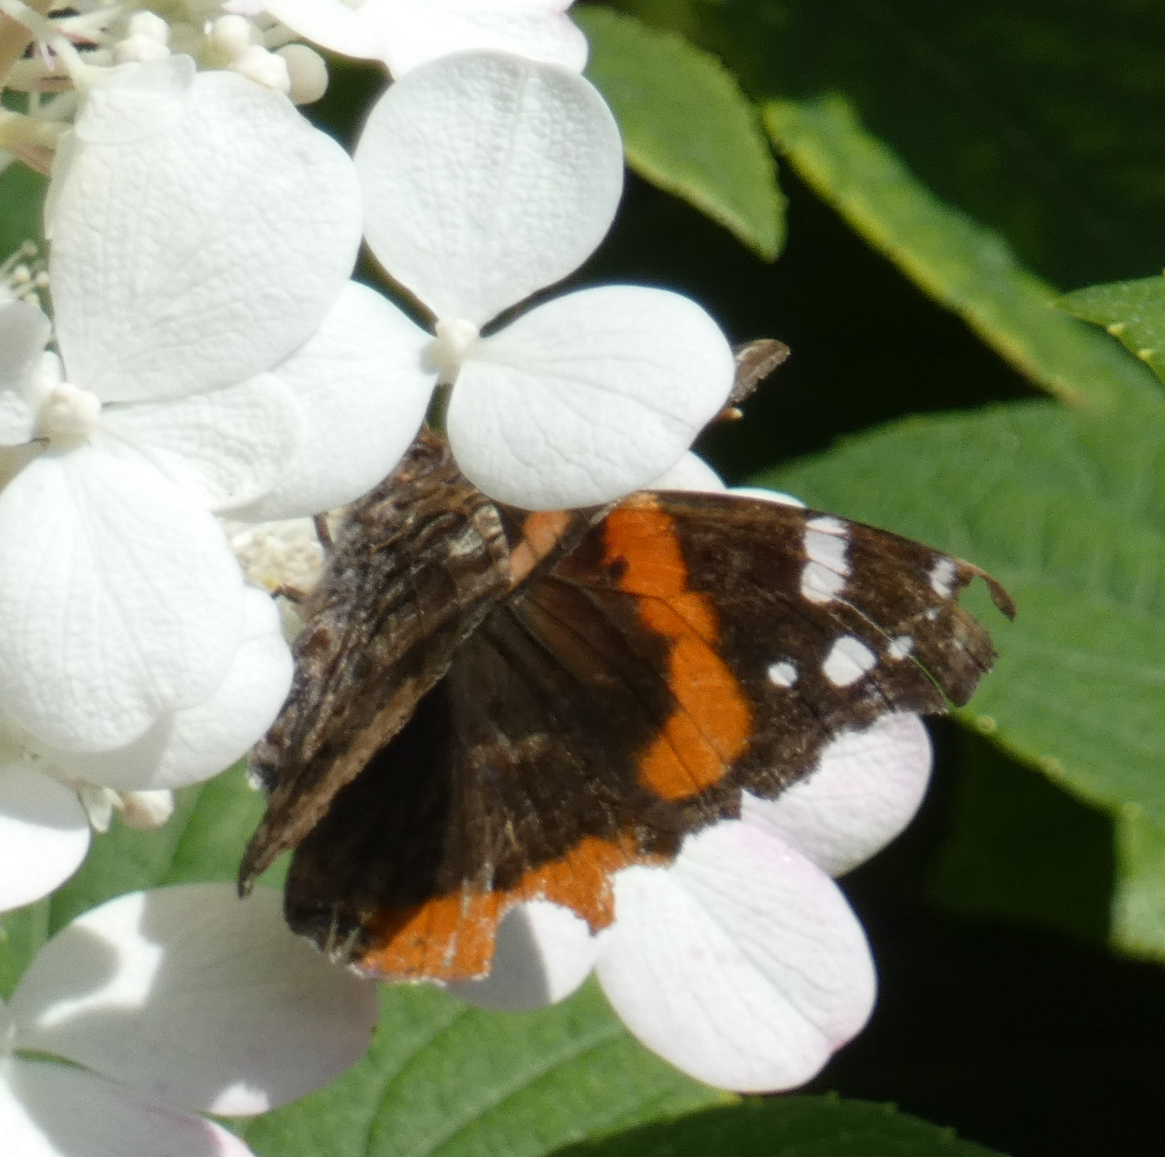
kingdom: Animalia
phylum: Arthropoda
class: Insecta
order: Lepidoptera
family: Nymphalidae
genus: Vanessa
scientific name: Vanessa atalanta
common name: Red admiral
